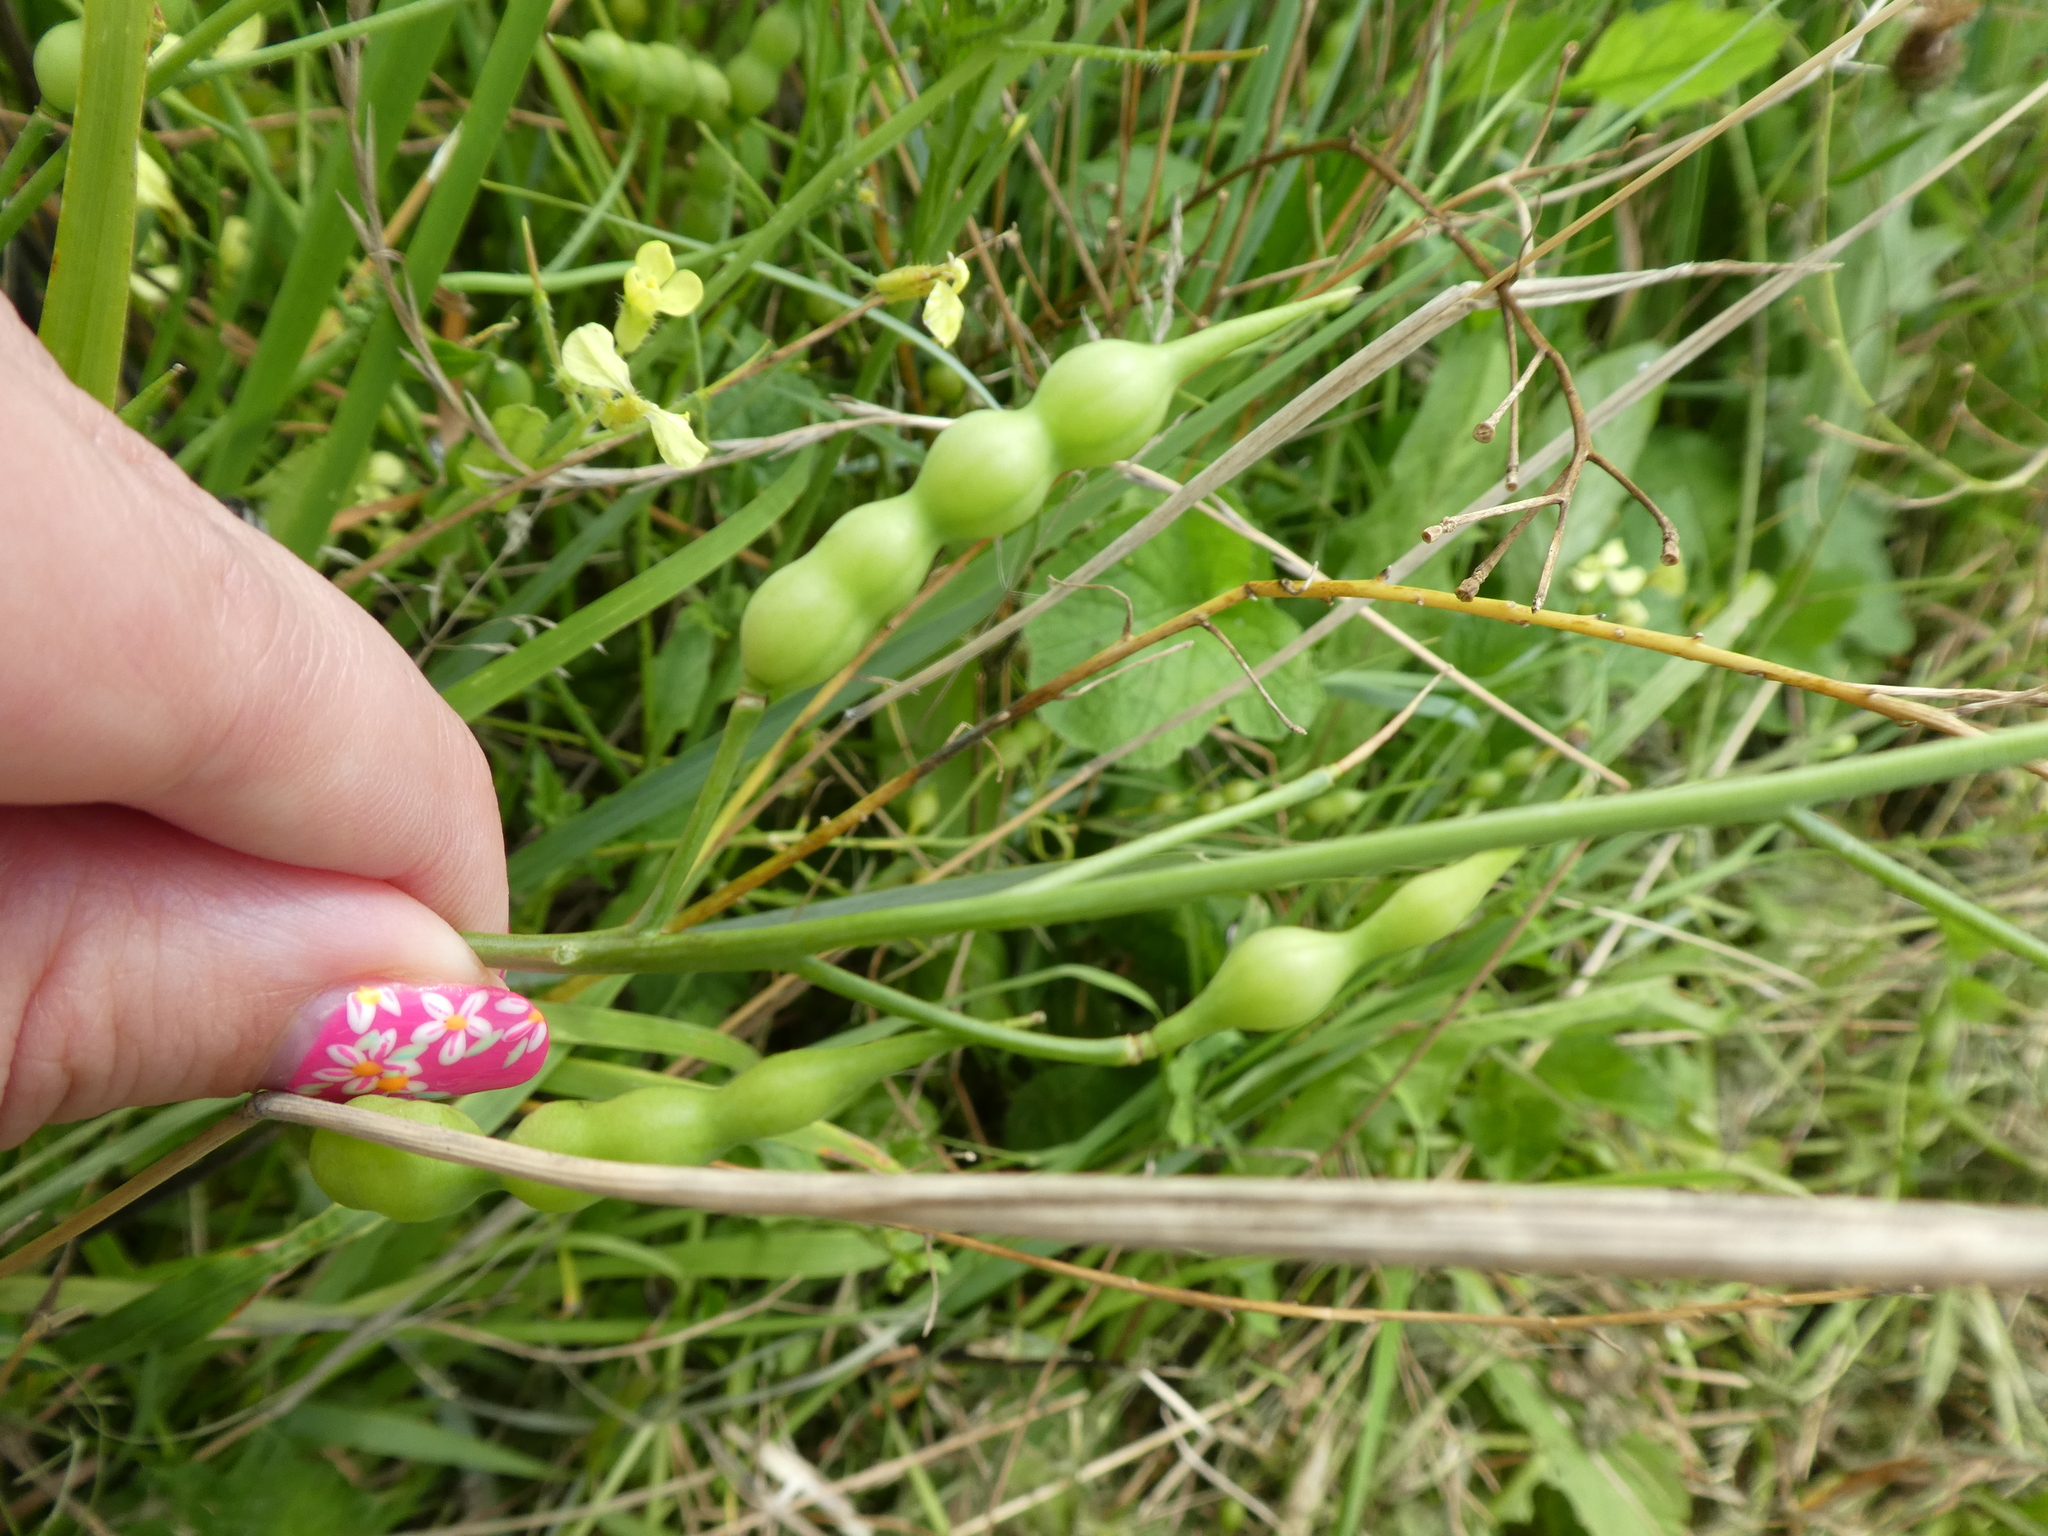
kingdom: Plantae
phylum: Tracheophyta
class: Magnoliopsida
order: Brassicales
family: Brassicaceae
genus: Raphanus
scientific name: Raphanus raphanistrum
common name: Wild radish
